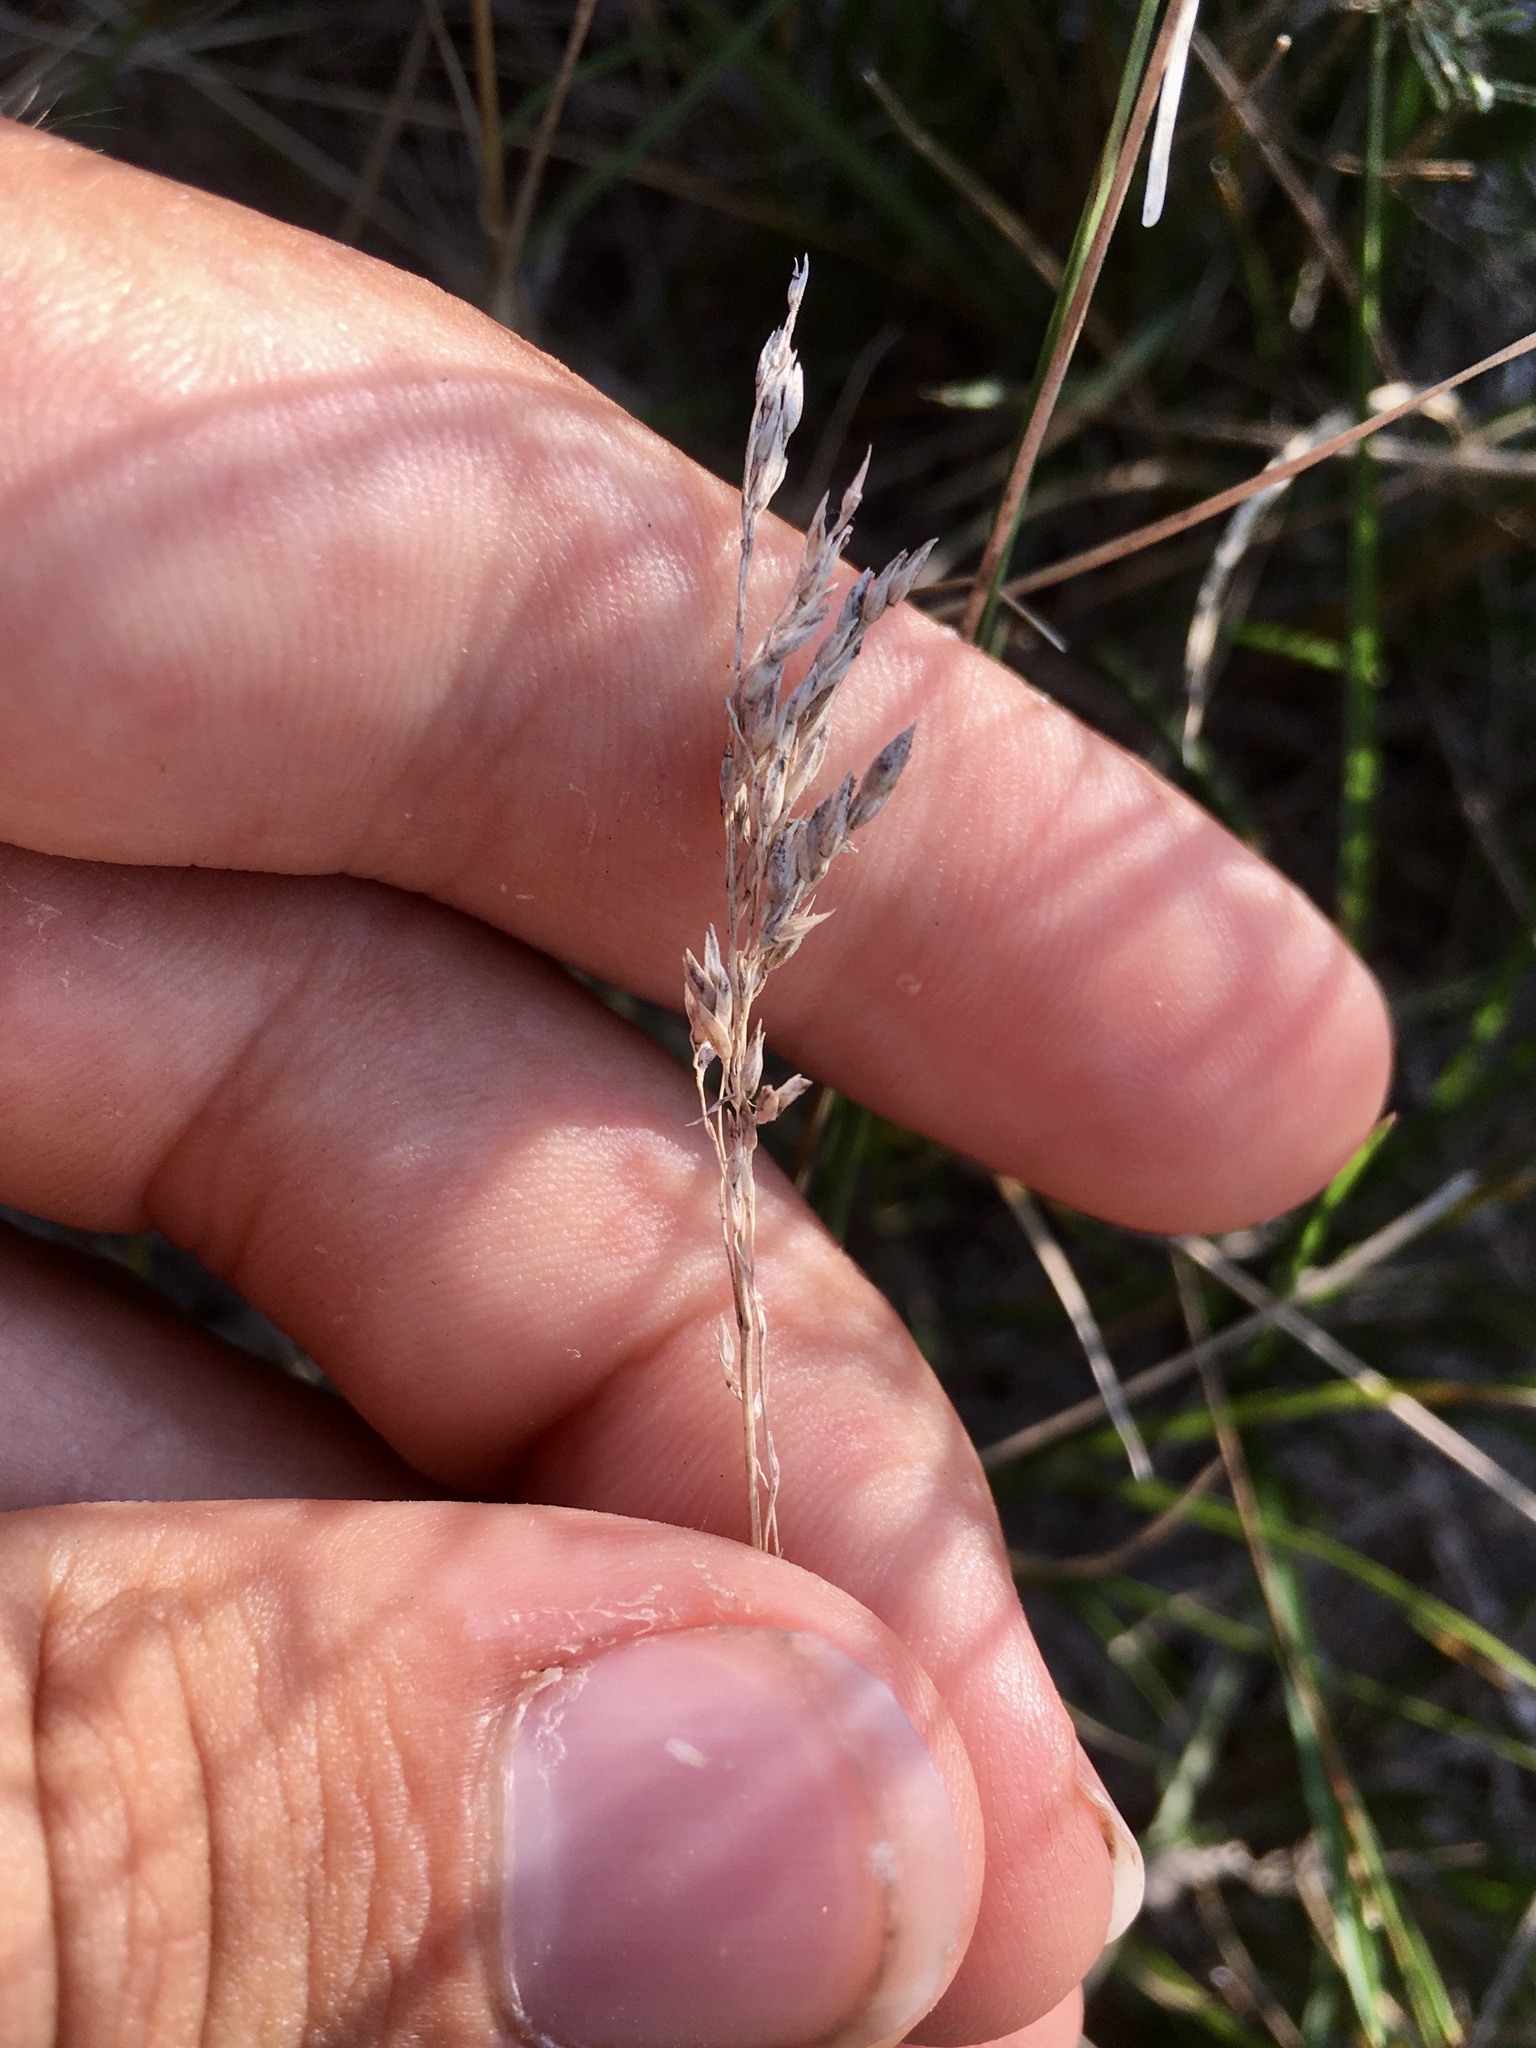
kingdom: Plantae
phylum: Tracheophyta
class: Liliopsida
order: Poales
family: Poaceae
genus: Poa
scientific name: Poa pratensis
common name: Kentucky bluegrass
